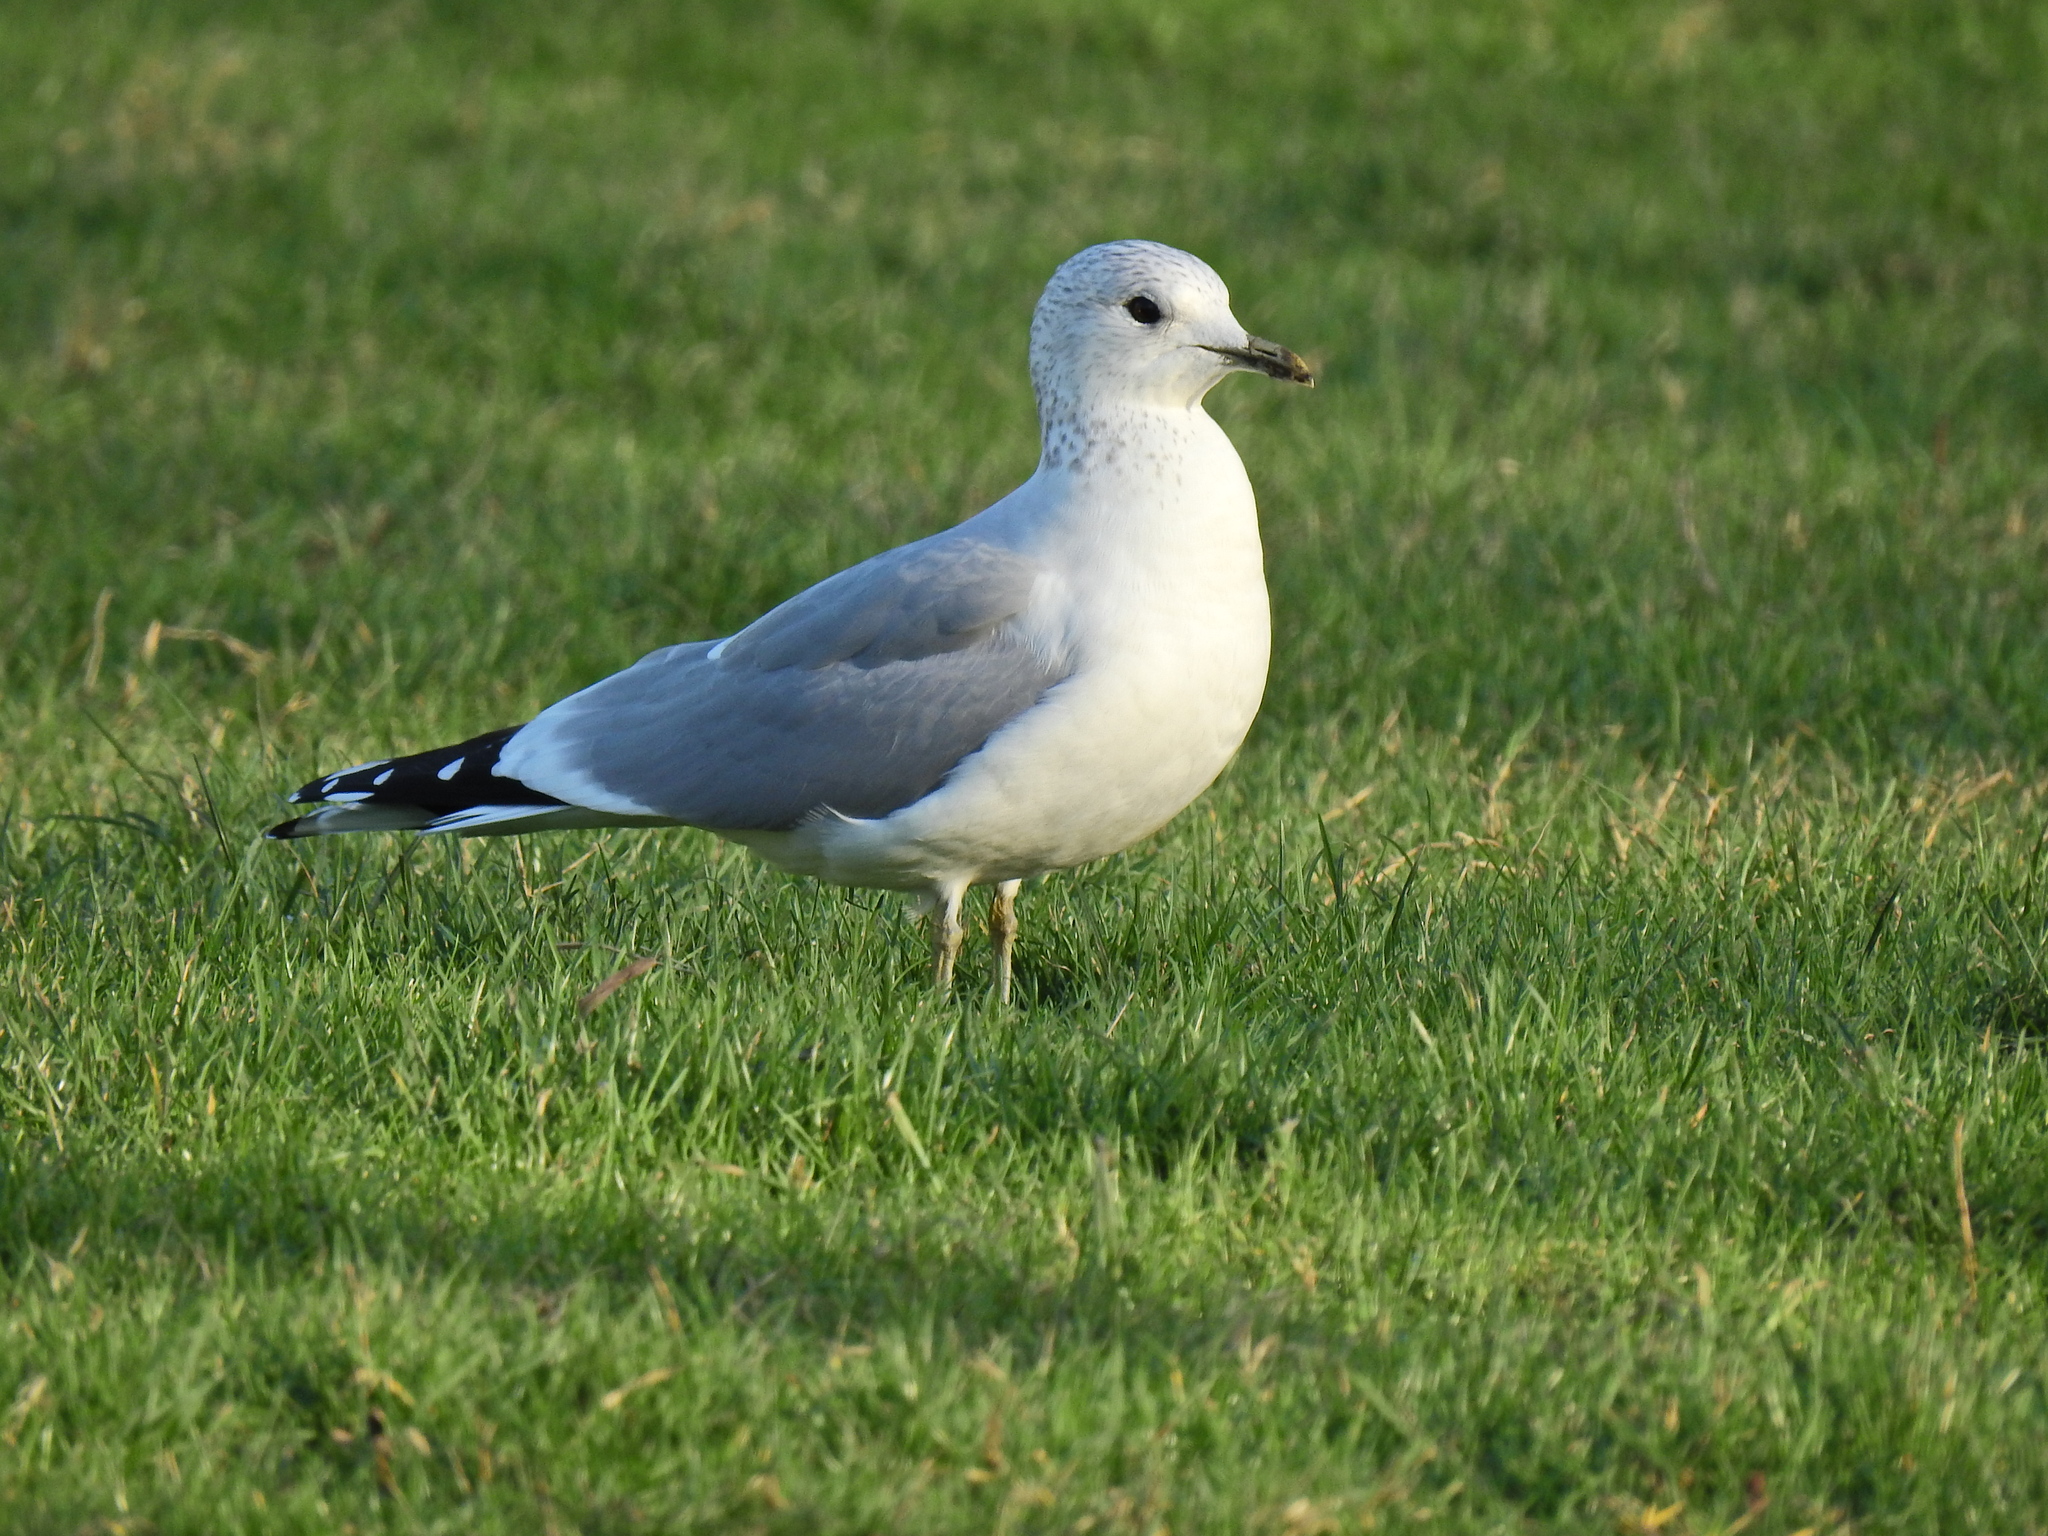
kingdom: Animalia
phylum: Chordata
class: Aves
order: Charadriiformes
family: Laridae
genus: Larus
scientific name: Larus canus
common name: Mew gull
